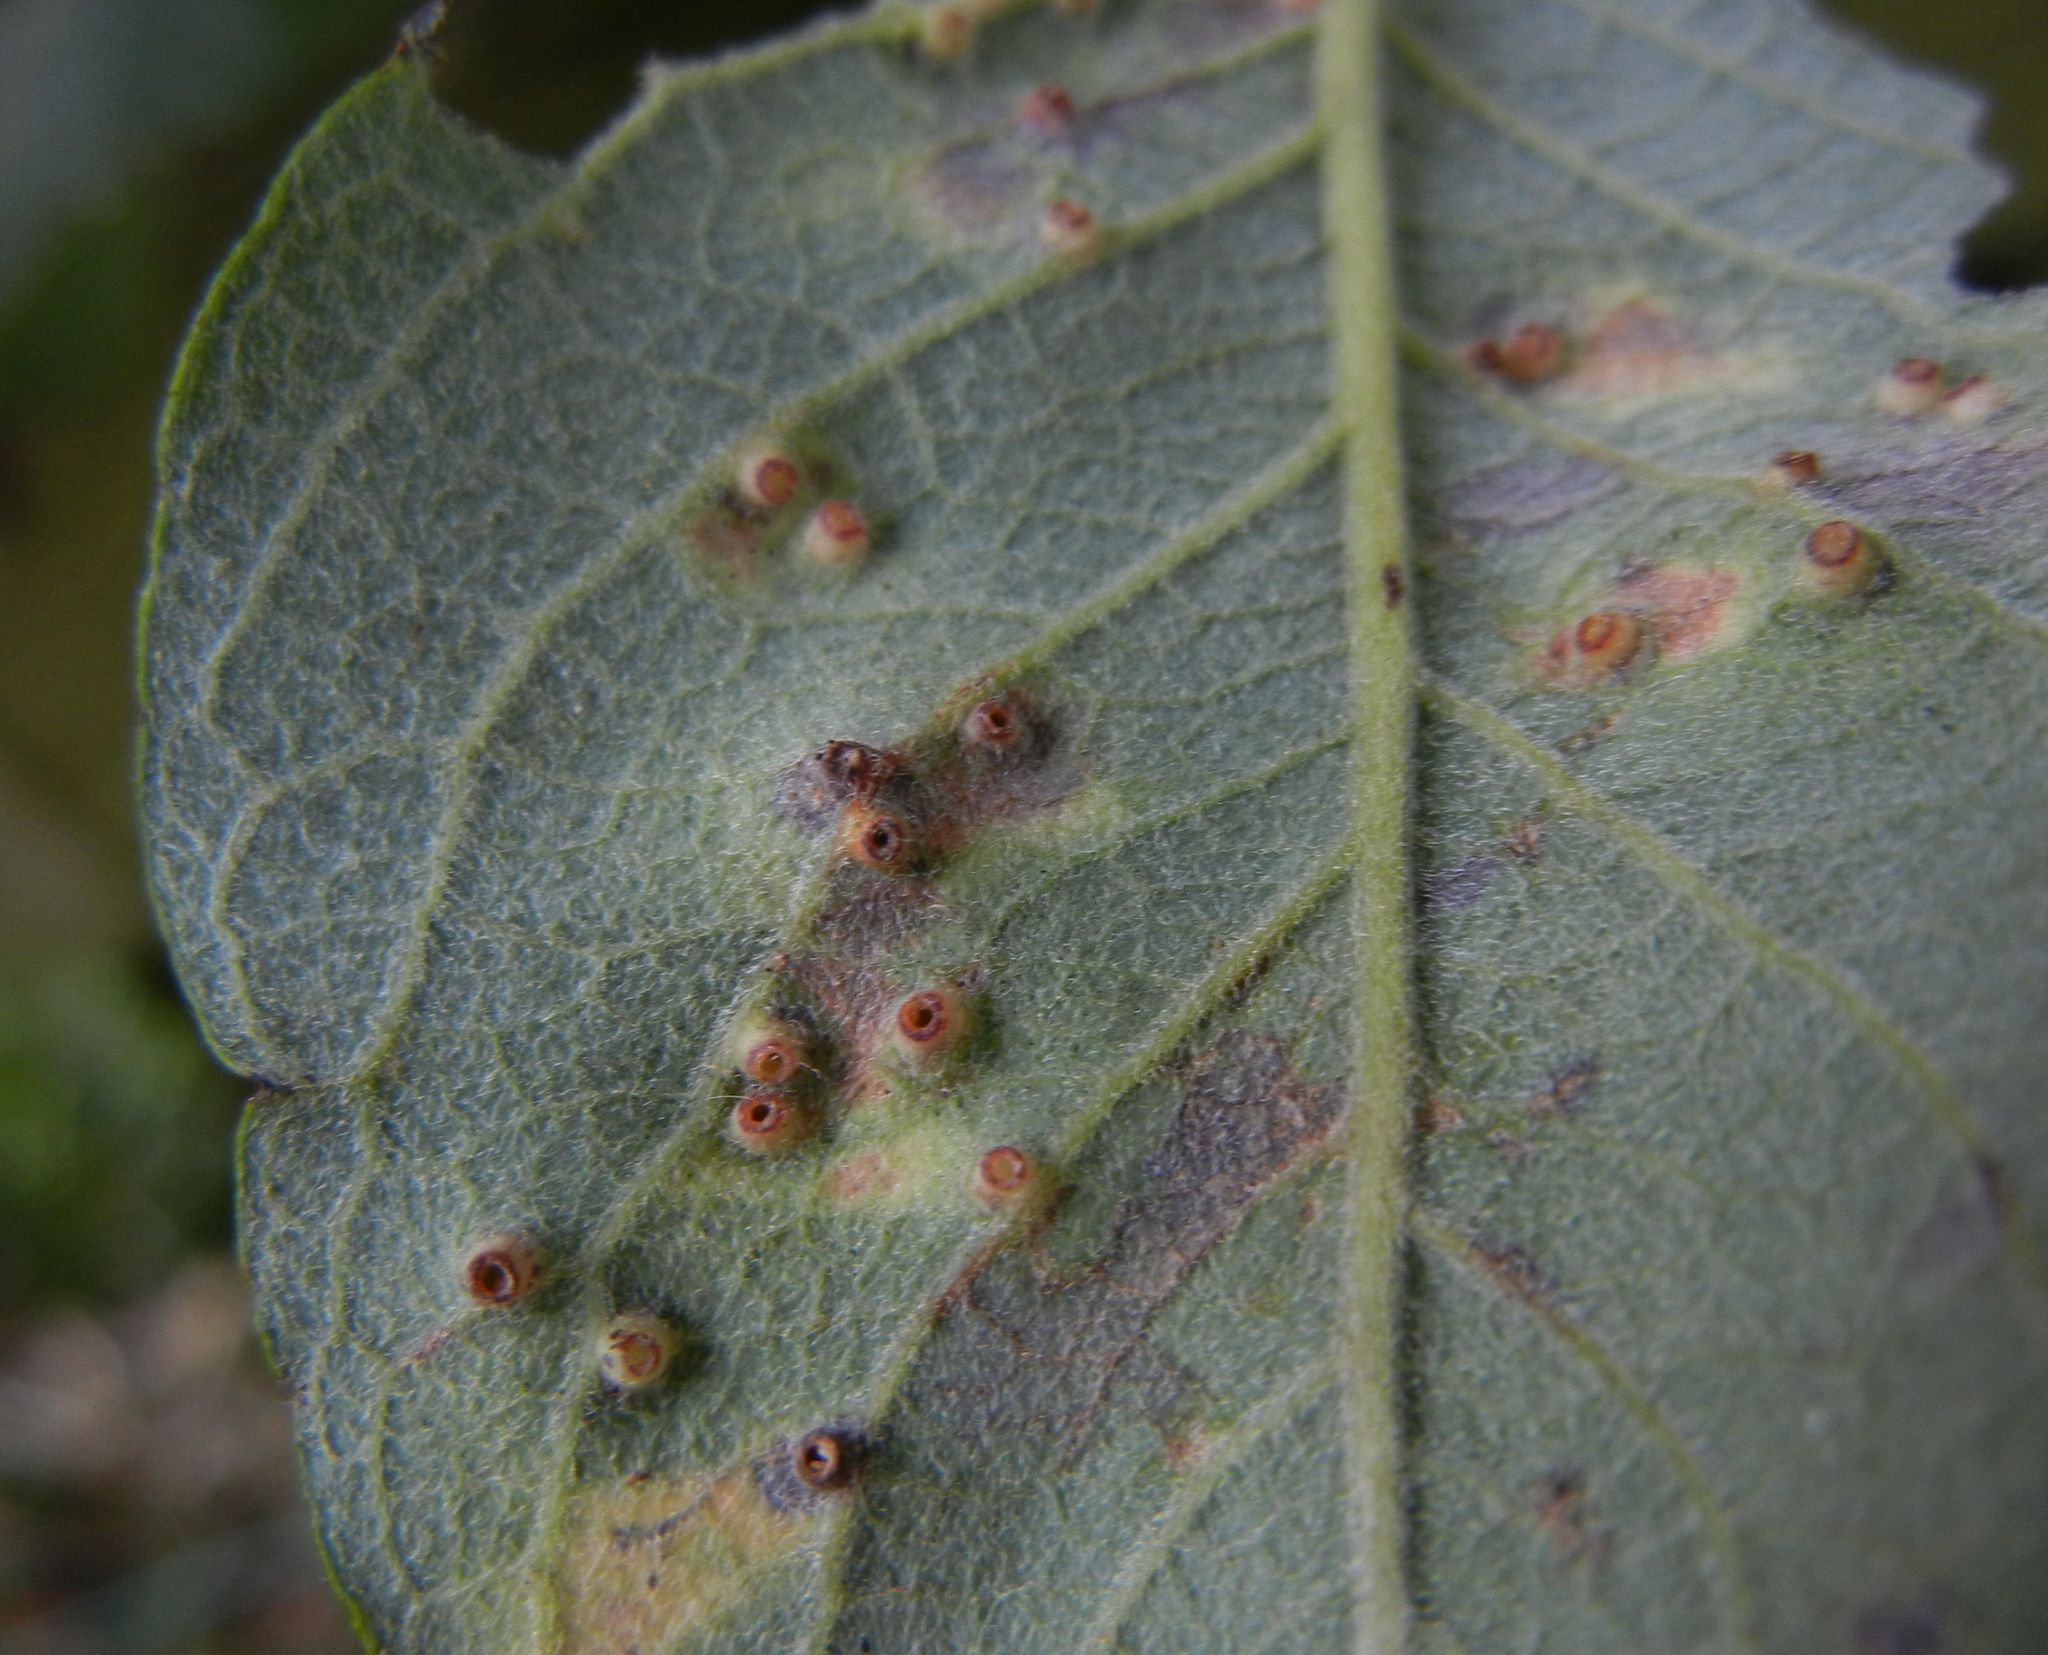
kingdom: Animalia
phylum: Arthropoda
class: Insecta
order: Diptera
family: Cecidomyiidae
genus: Iteomyia
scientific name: Iteomyia capreae
